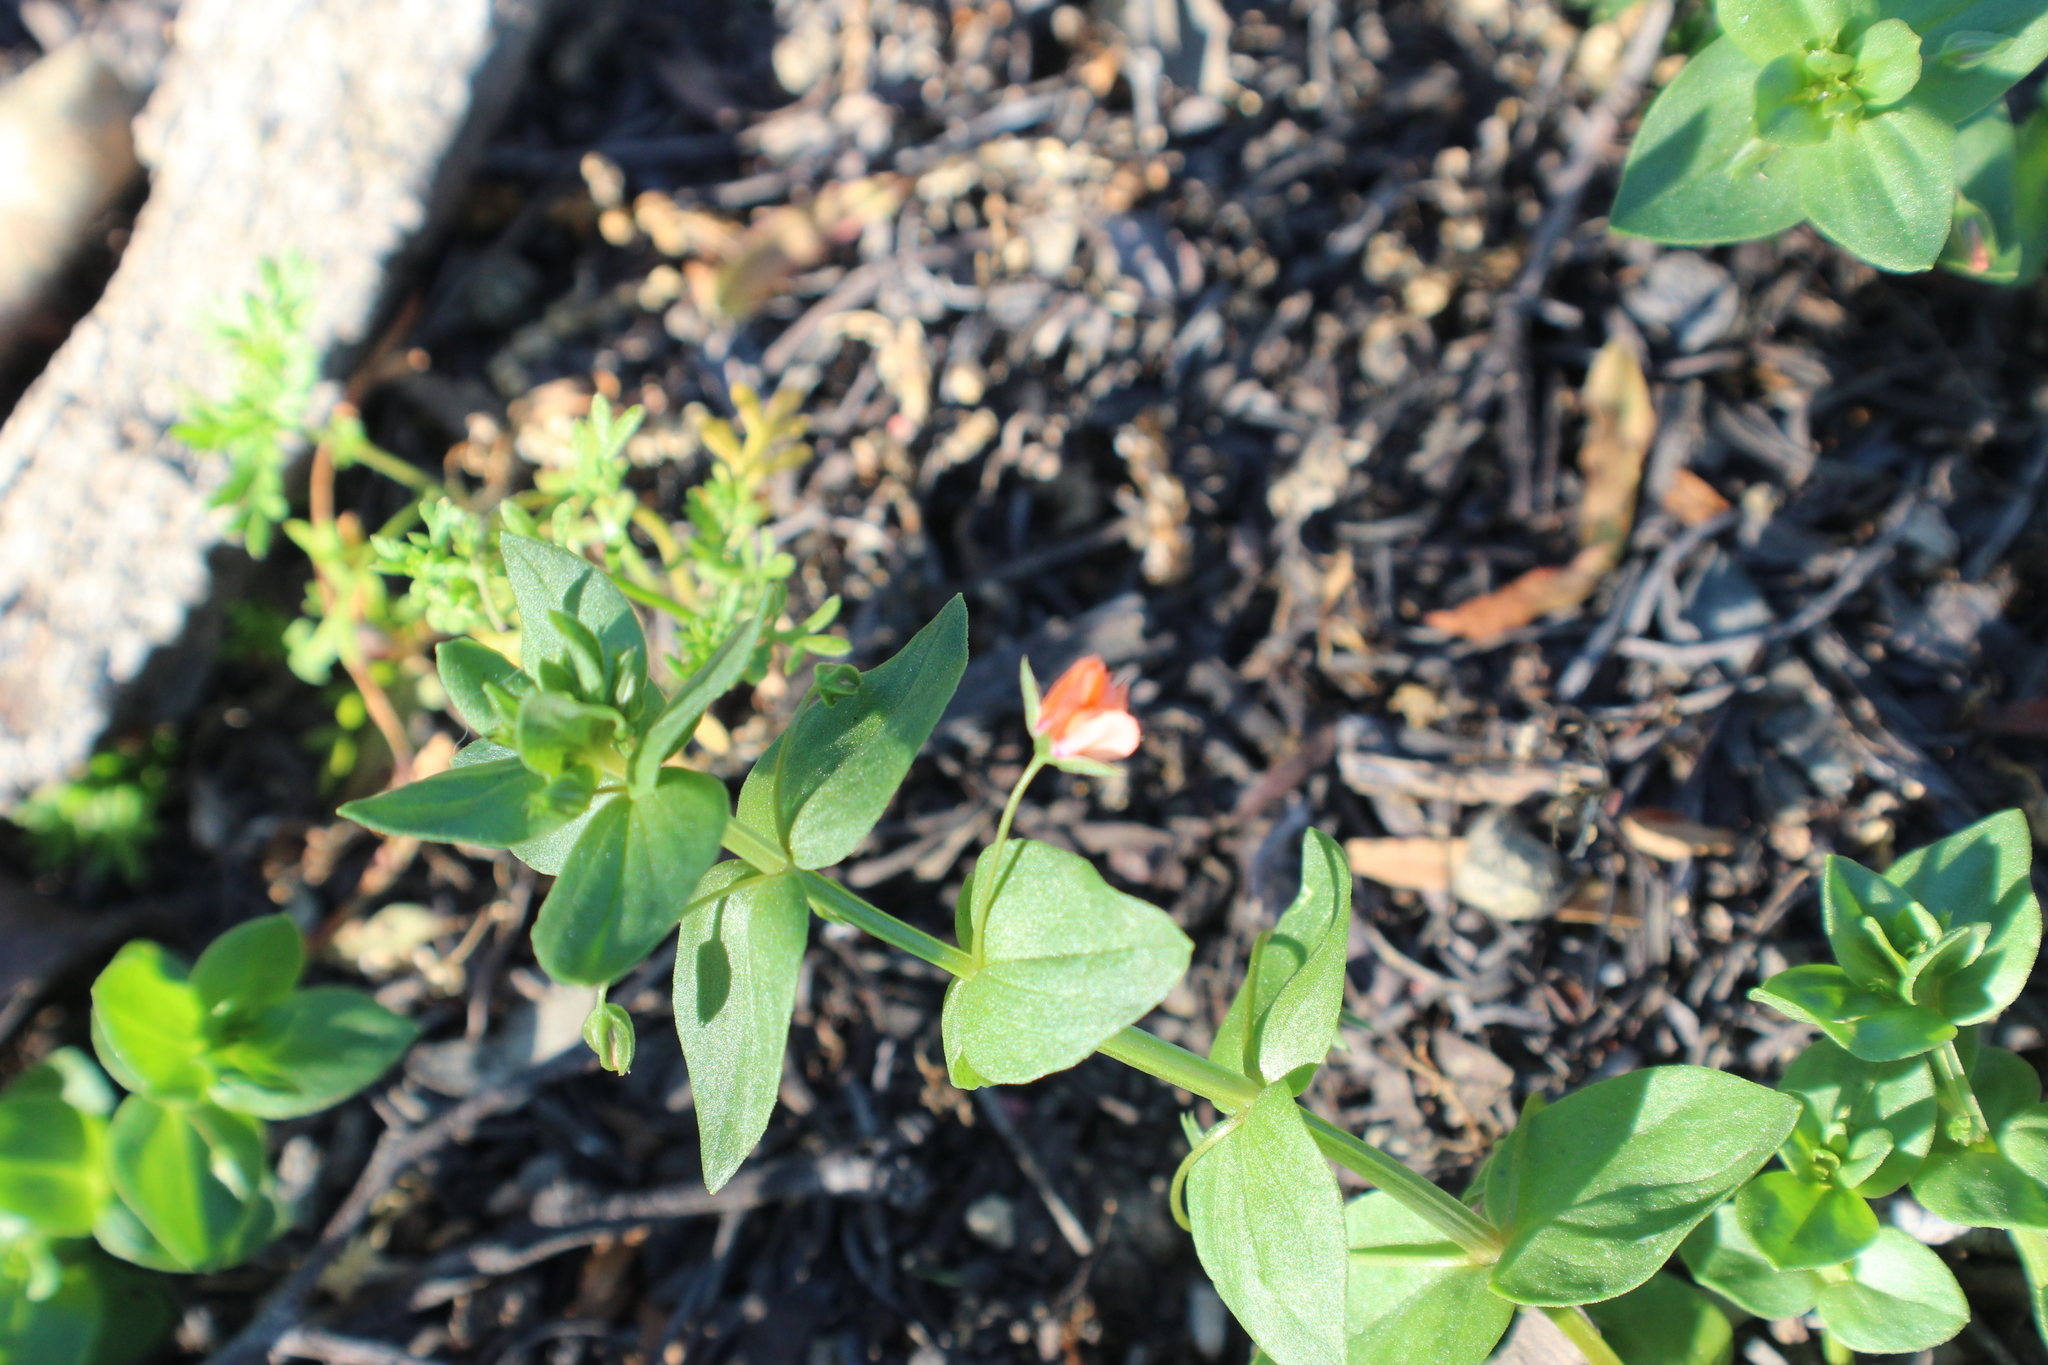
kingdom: Plantae
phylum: Tracheophyta
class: Magnoliopsida
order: Ericales
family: Primulaceae
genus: Lysimachia
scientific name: Lysimachia arvensis
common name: Scarlet pimpernel
